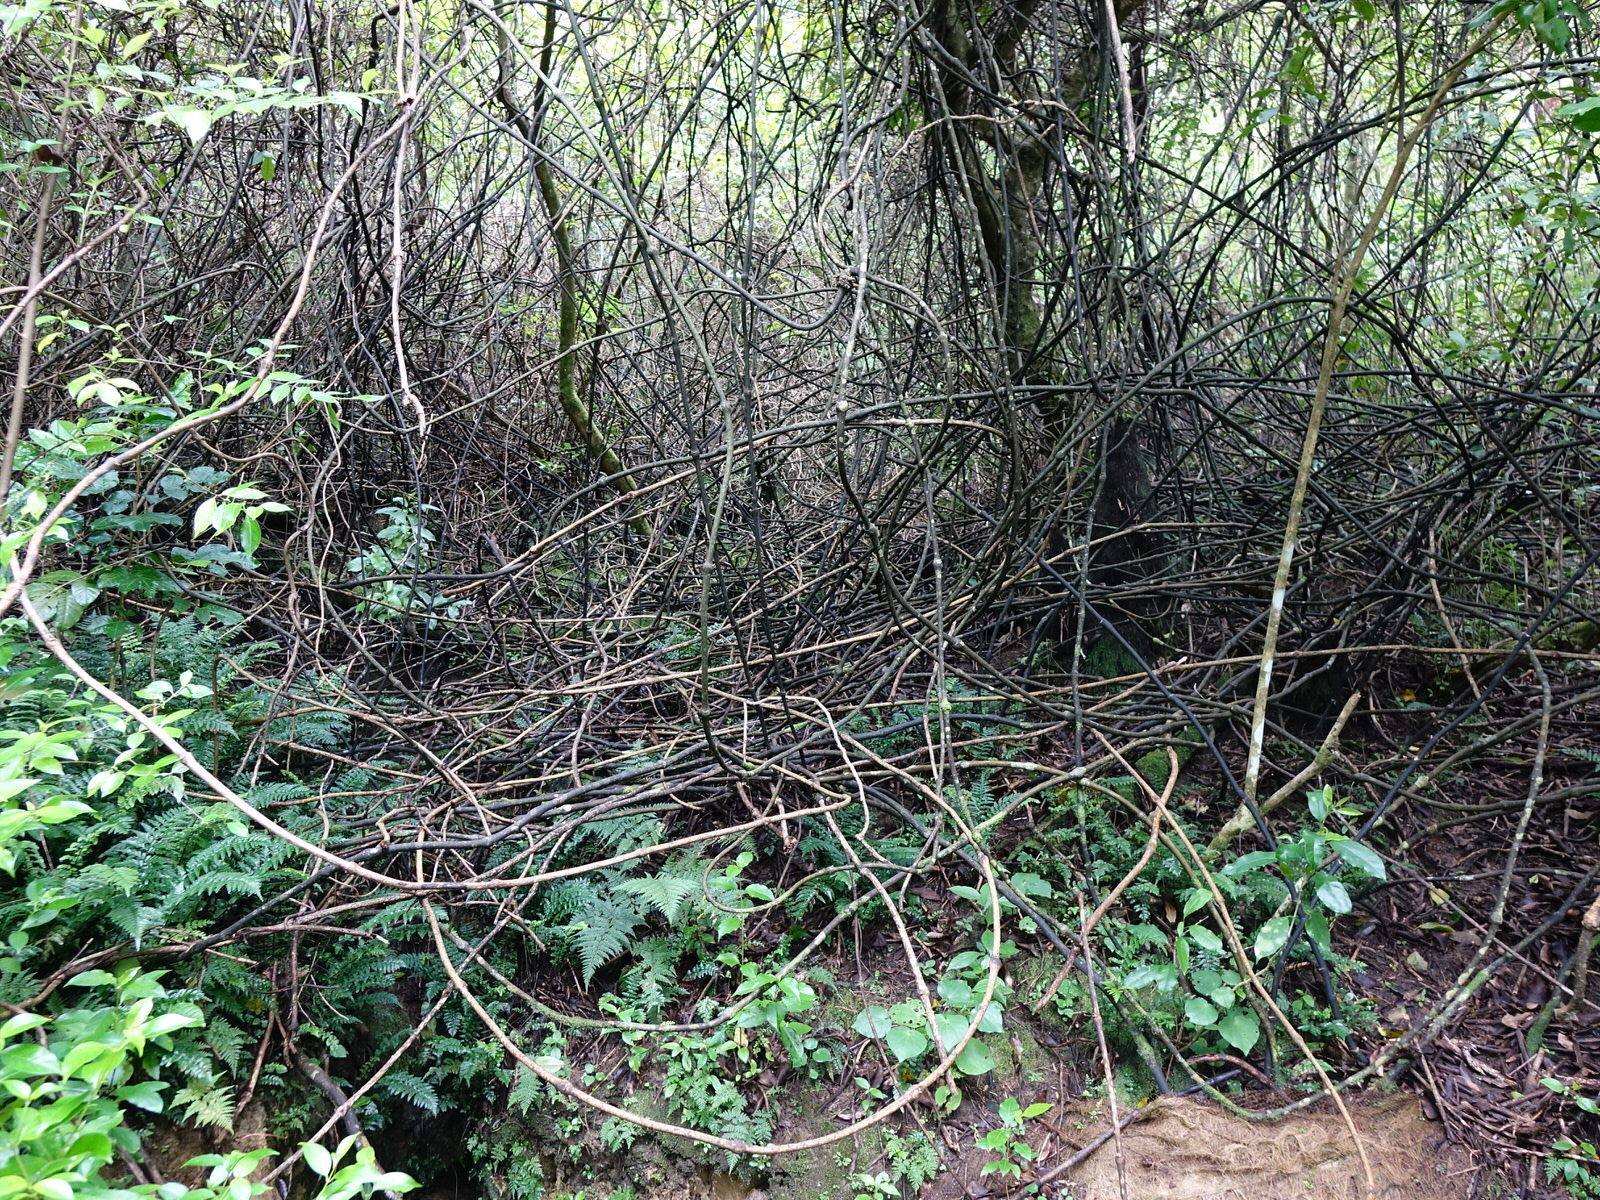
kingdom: Plantae
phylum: Tracheophyta
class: Liliopsida
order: Liliales
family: Ripogonaceae
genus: Ripogonum
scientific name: Ripogonum scandens
